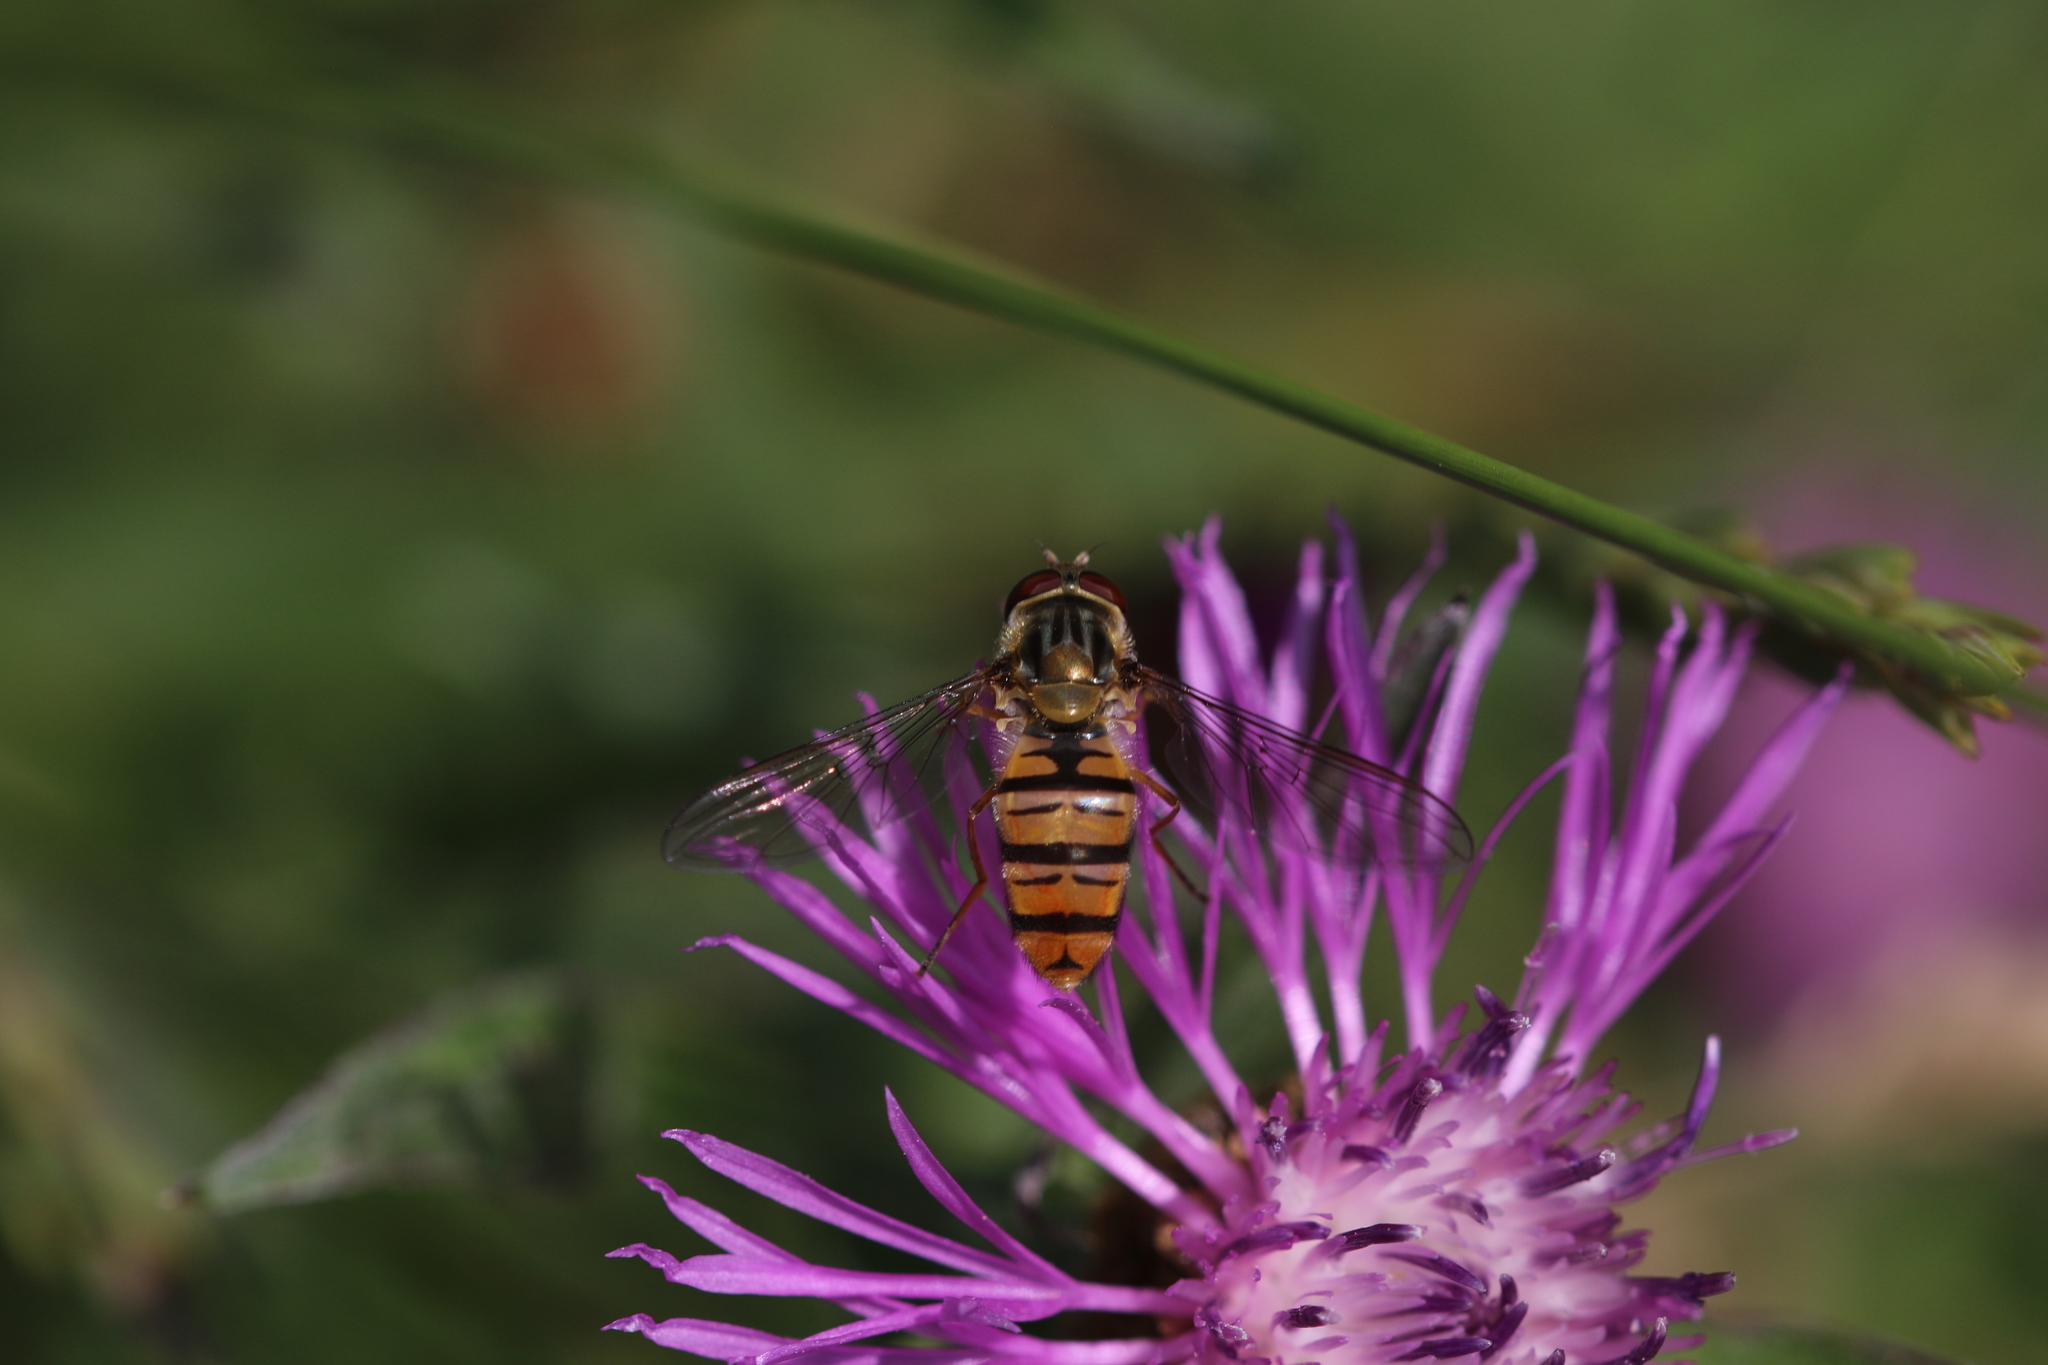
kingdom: Animalia
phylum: Arthropoda
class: Insecta
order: Diptera
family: Syrphidae
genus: Episyrphus
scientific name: Episyrphus balteatus
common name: Marmalade hoverfly
